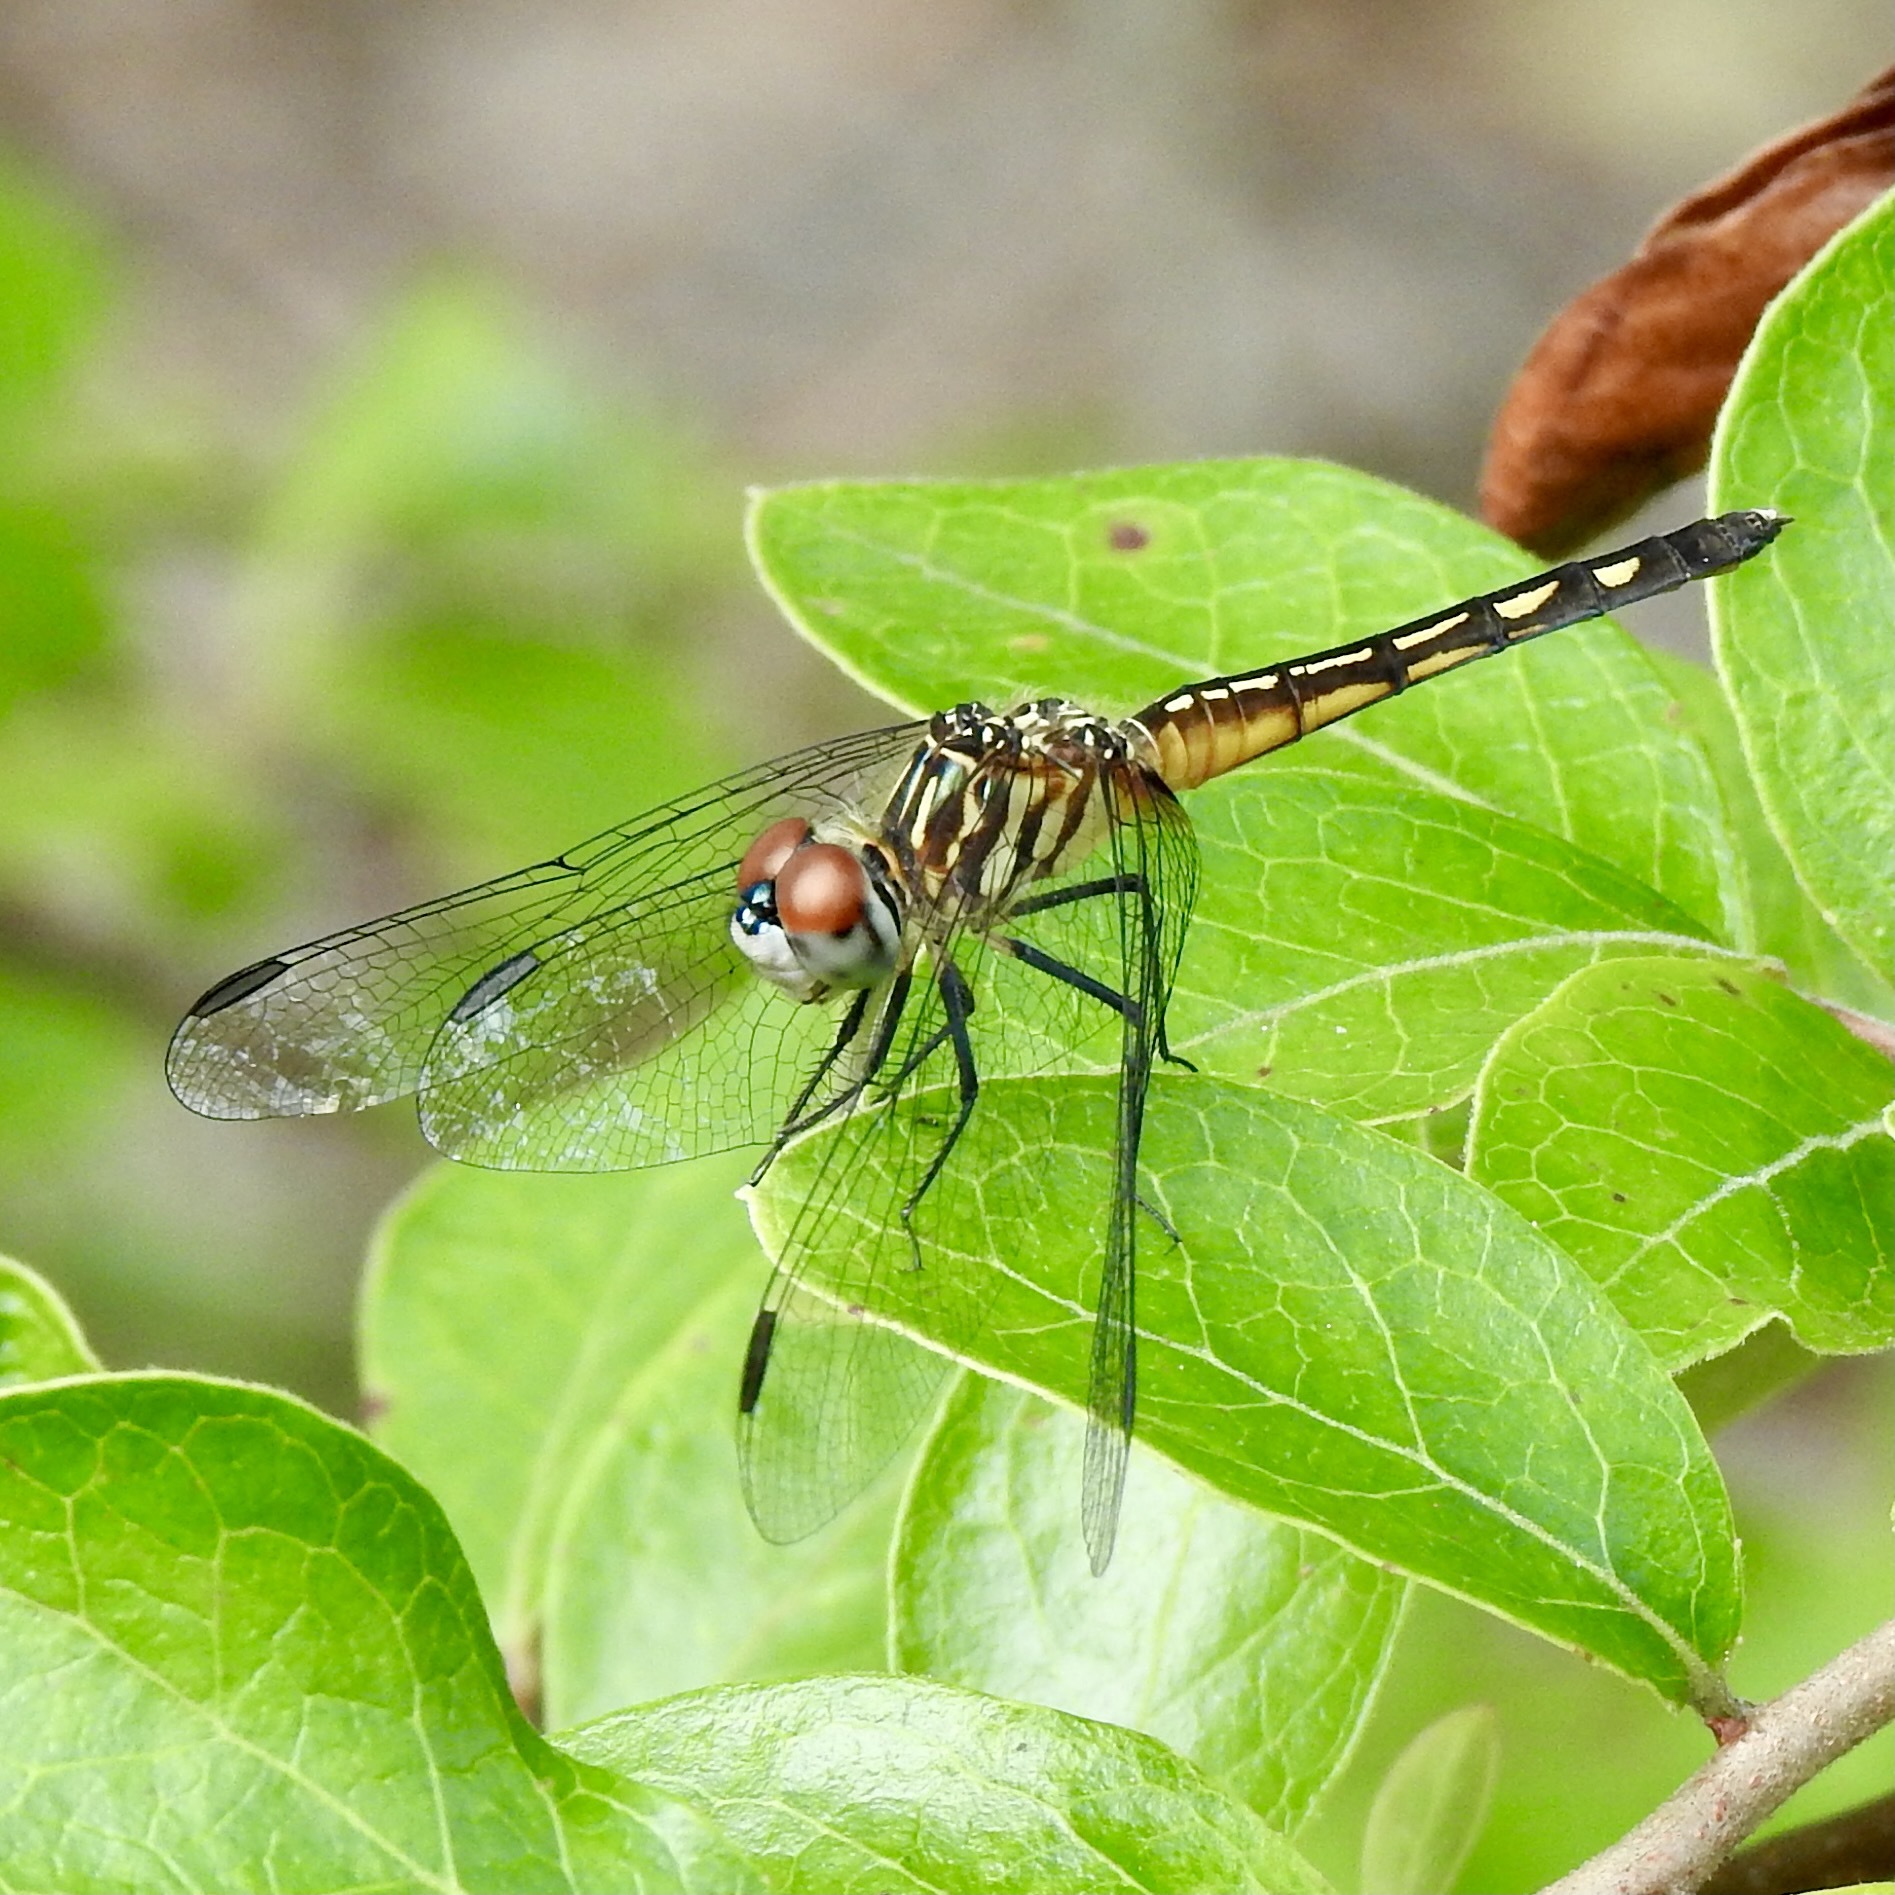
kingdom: Animalia
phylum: Arthropoda
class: Insecta
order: Odonata
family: Libellulidae
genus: Pachydiplax
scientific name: Pachydiplax longipennis
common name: Blue dasher
